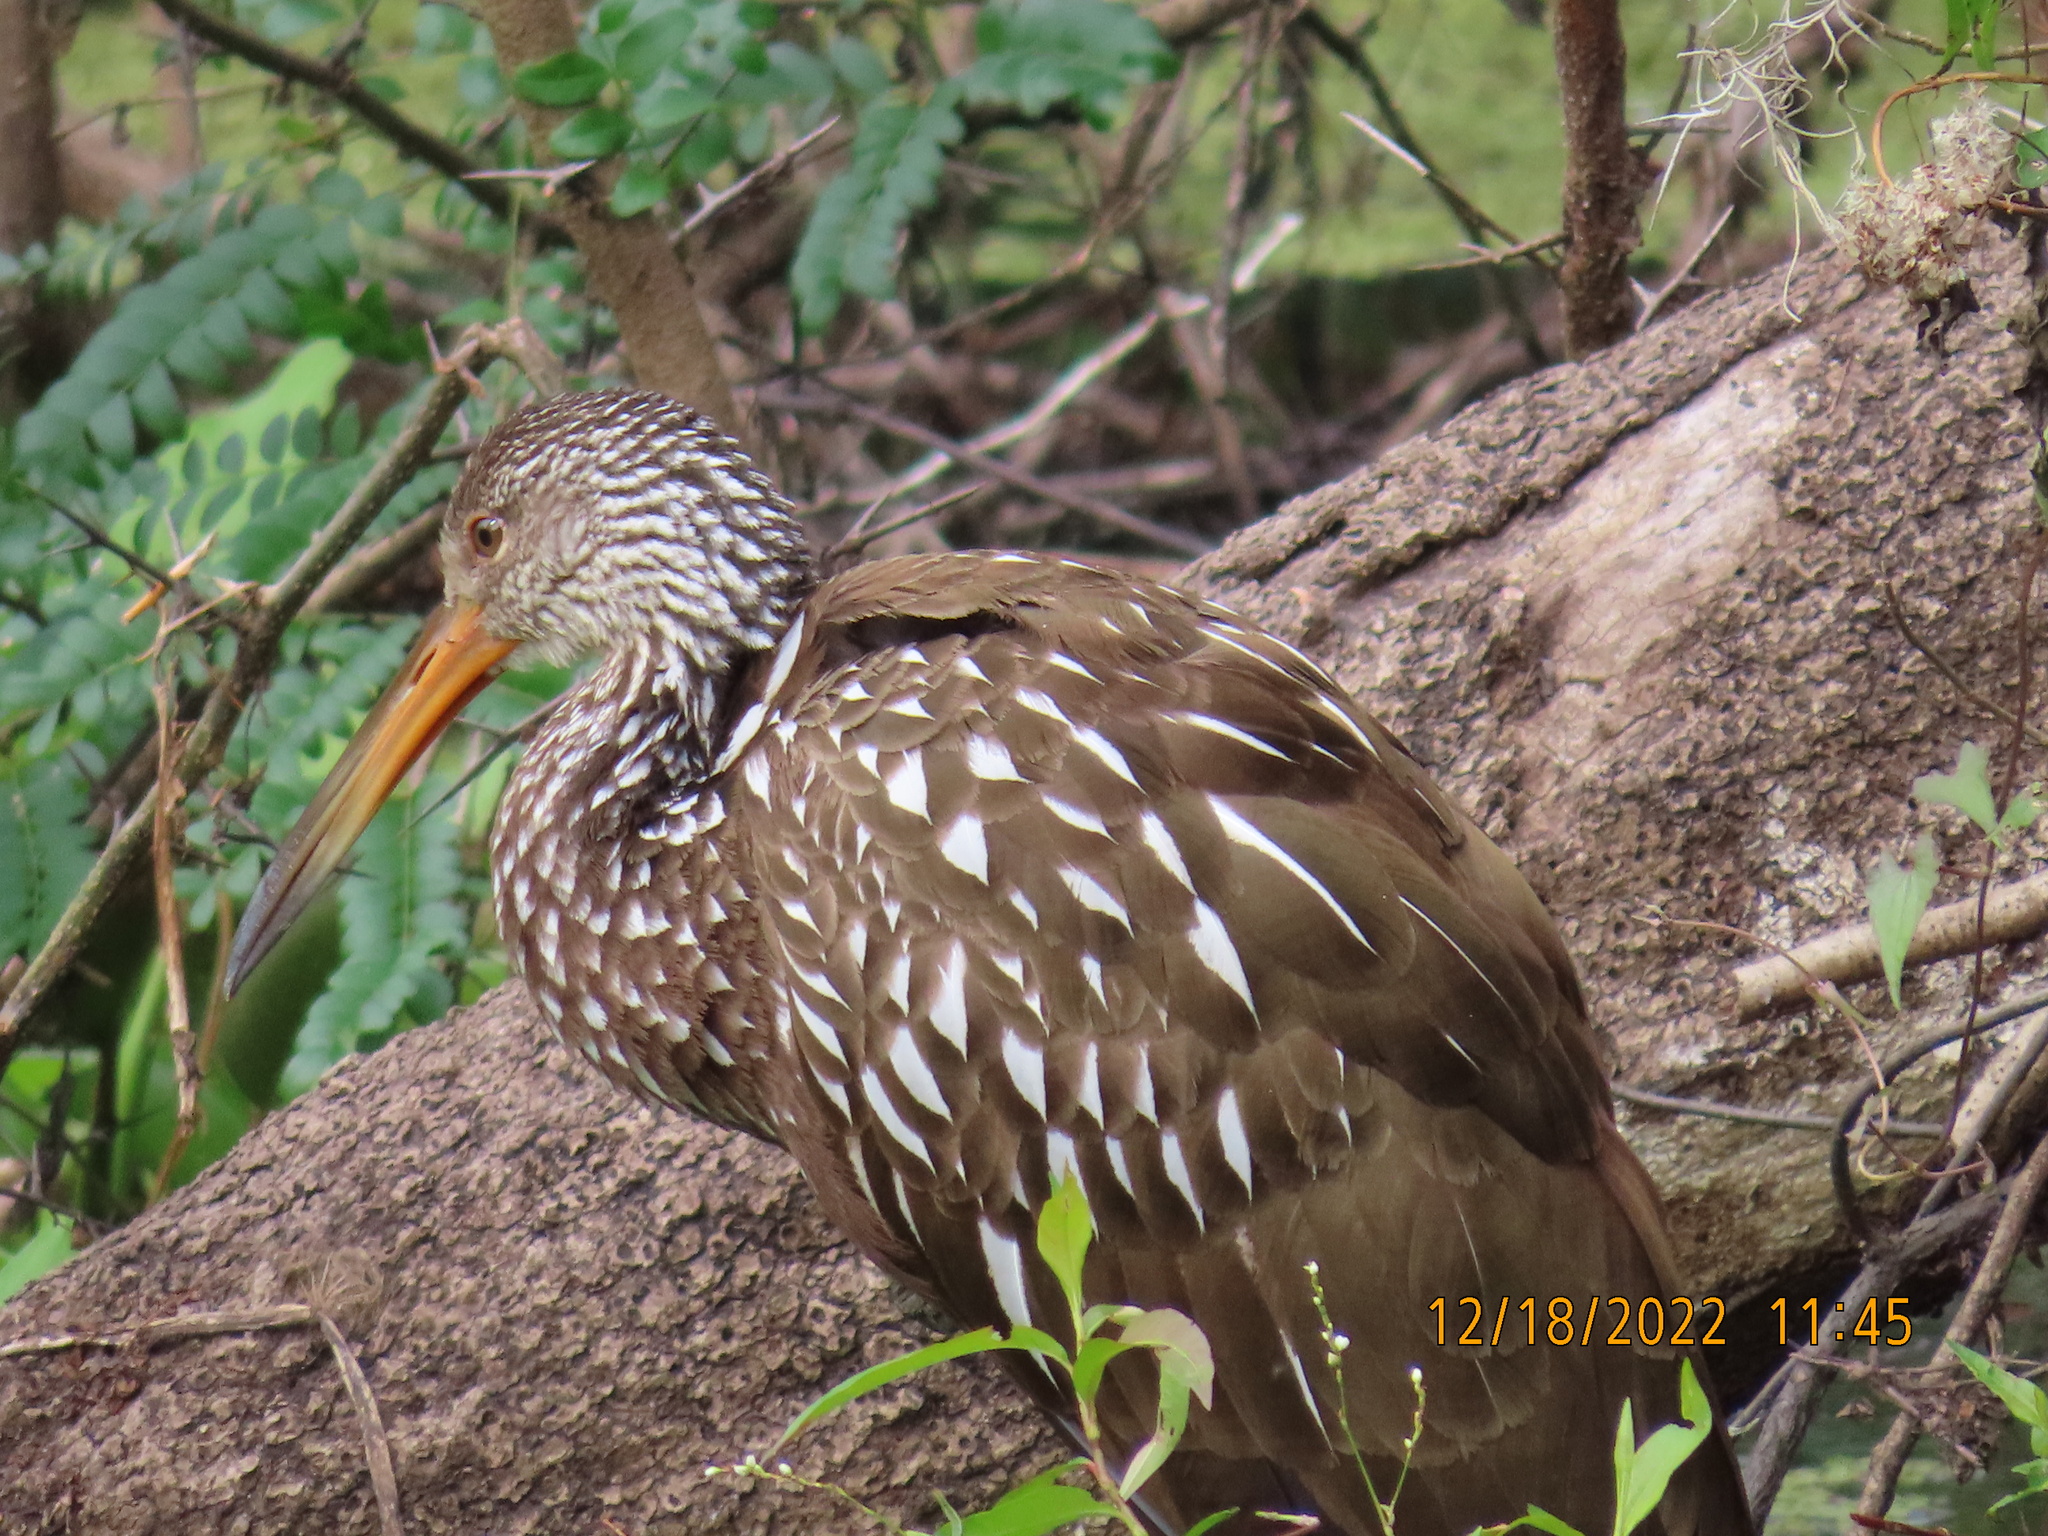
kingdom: Animalia
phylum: Chordata
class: Aves
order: Gruiformes
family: Aramidae
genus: Aramus
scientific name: Aramus guarauna
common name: Limpkin
